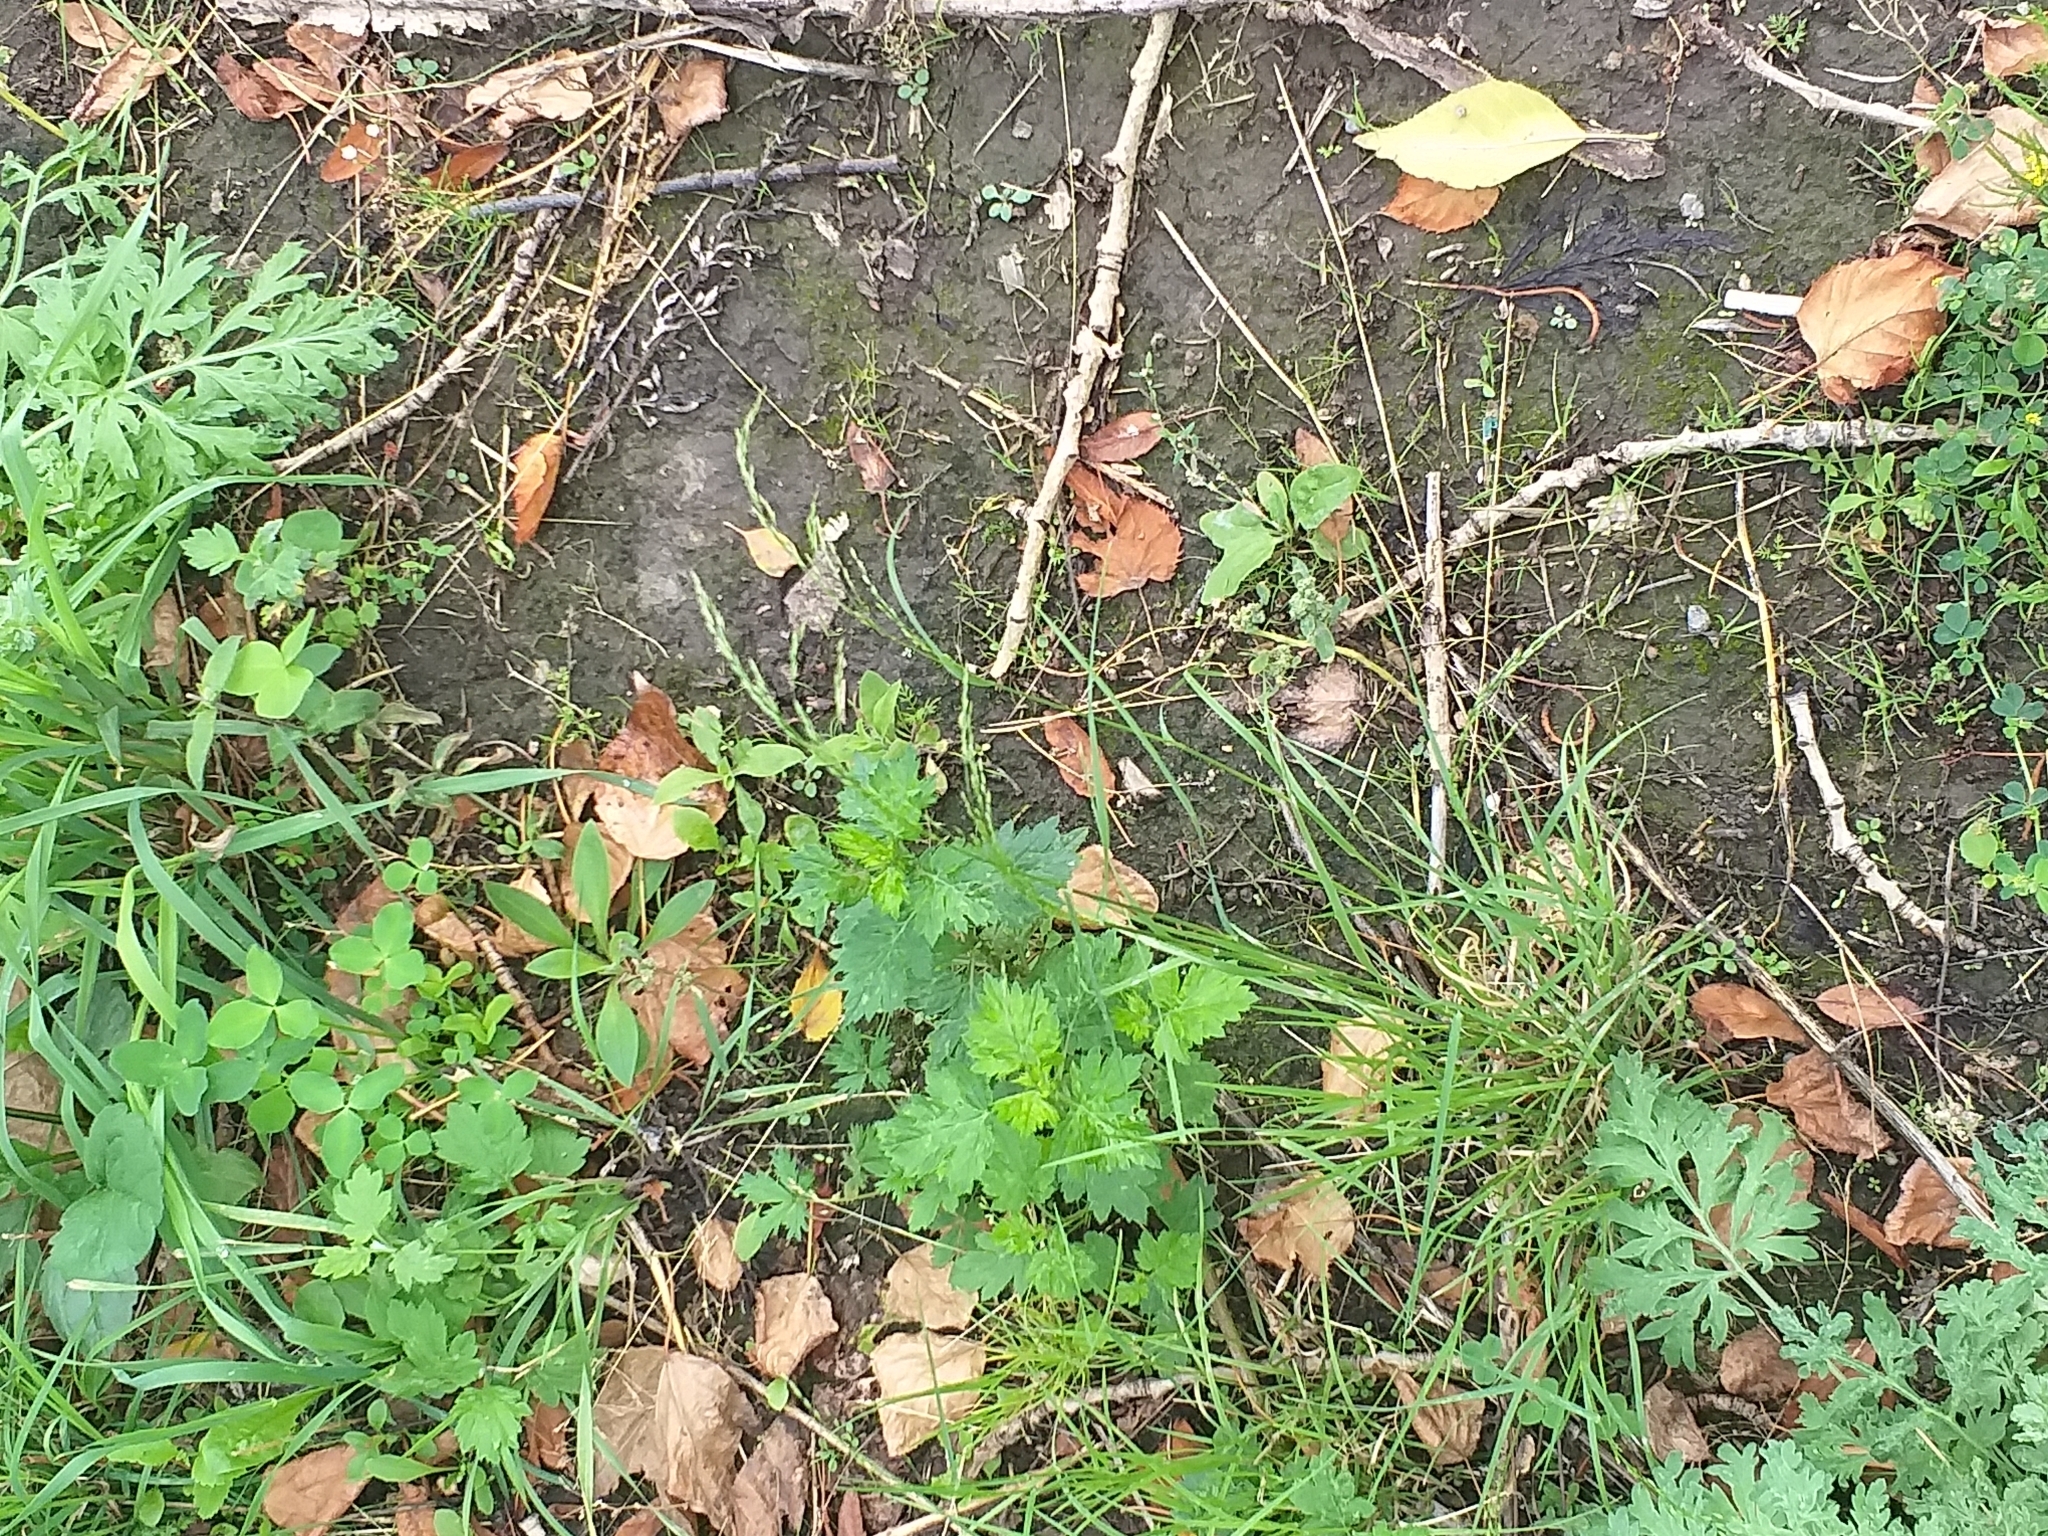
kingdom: Plantae
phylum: Tracheophyta
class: Liliopsida
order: Poales
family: Poaceae
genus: Poa
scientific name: Poa palustris
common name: Swamp meadow-grass
